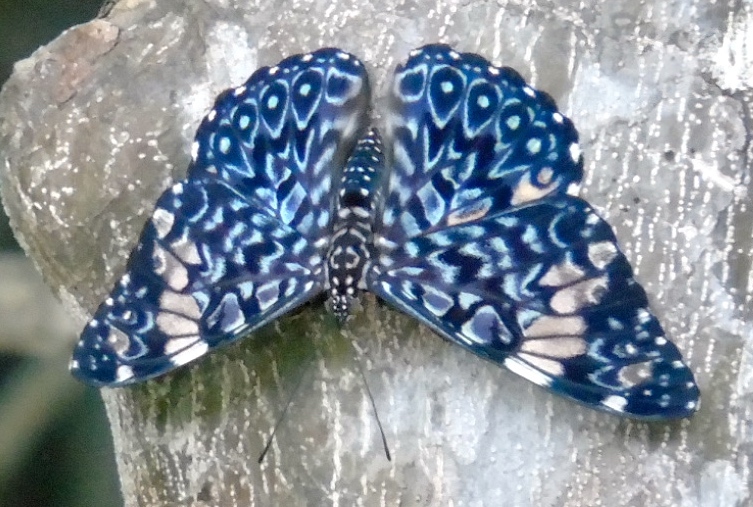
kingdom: Animalia
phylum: Arthropoda
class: Insecta
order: Lepidoptera
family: Nymphalidae
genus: Hamadryas
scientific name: Hamadryas amphinome
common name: Red cracker
